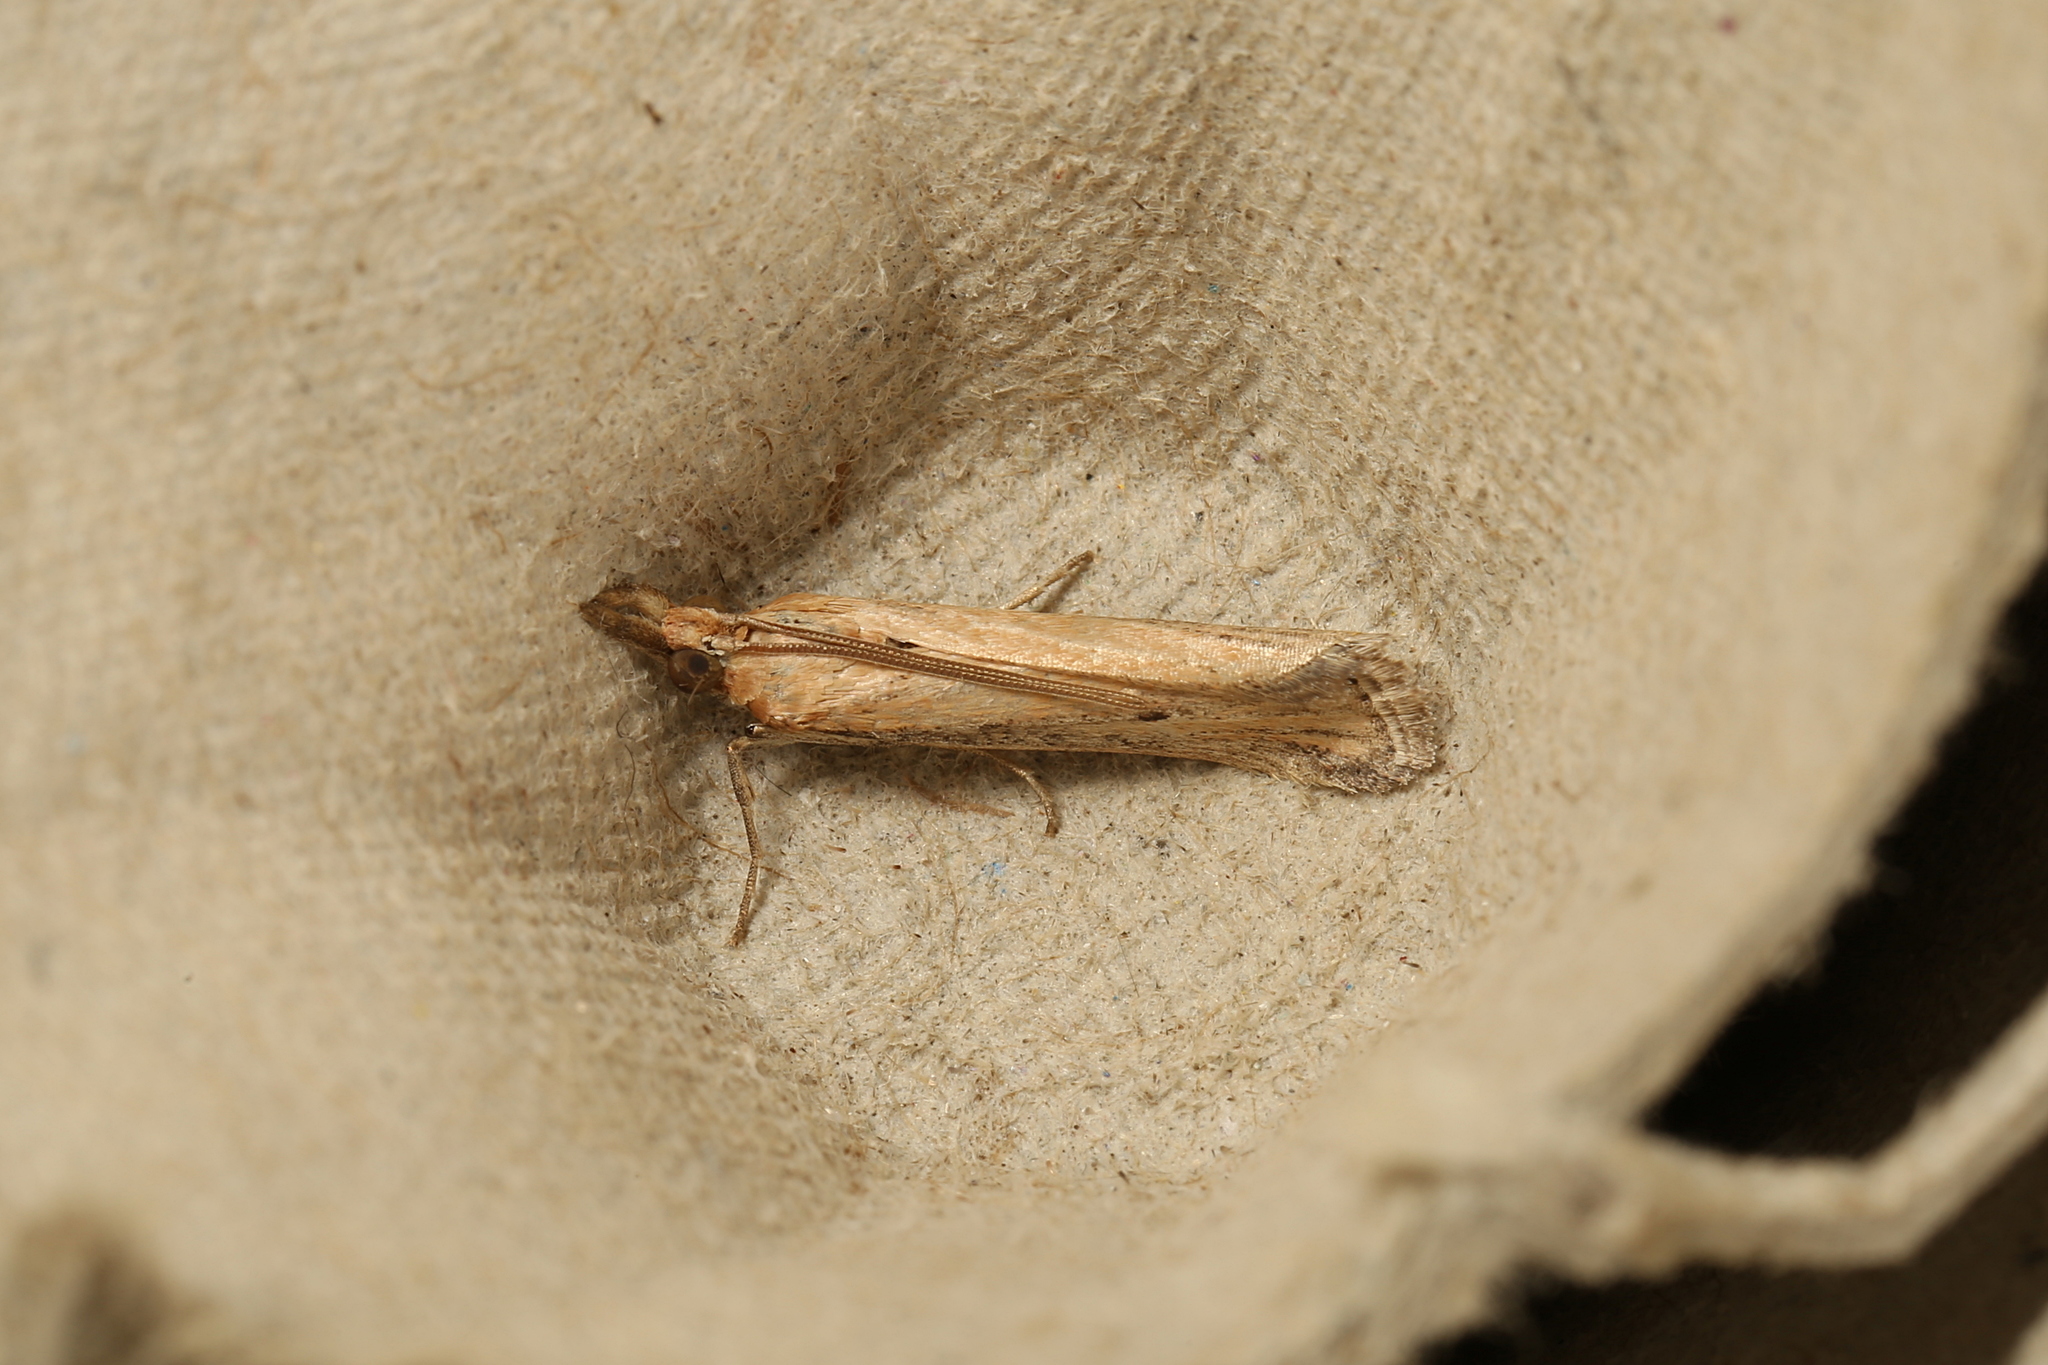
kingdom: Animalia
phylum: Arthropoda
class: Insecta
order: Lepidoptera
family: Pyralidae
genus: Faveria
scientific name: Faveria tritalis
